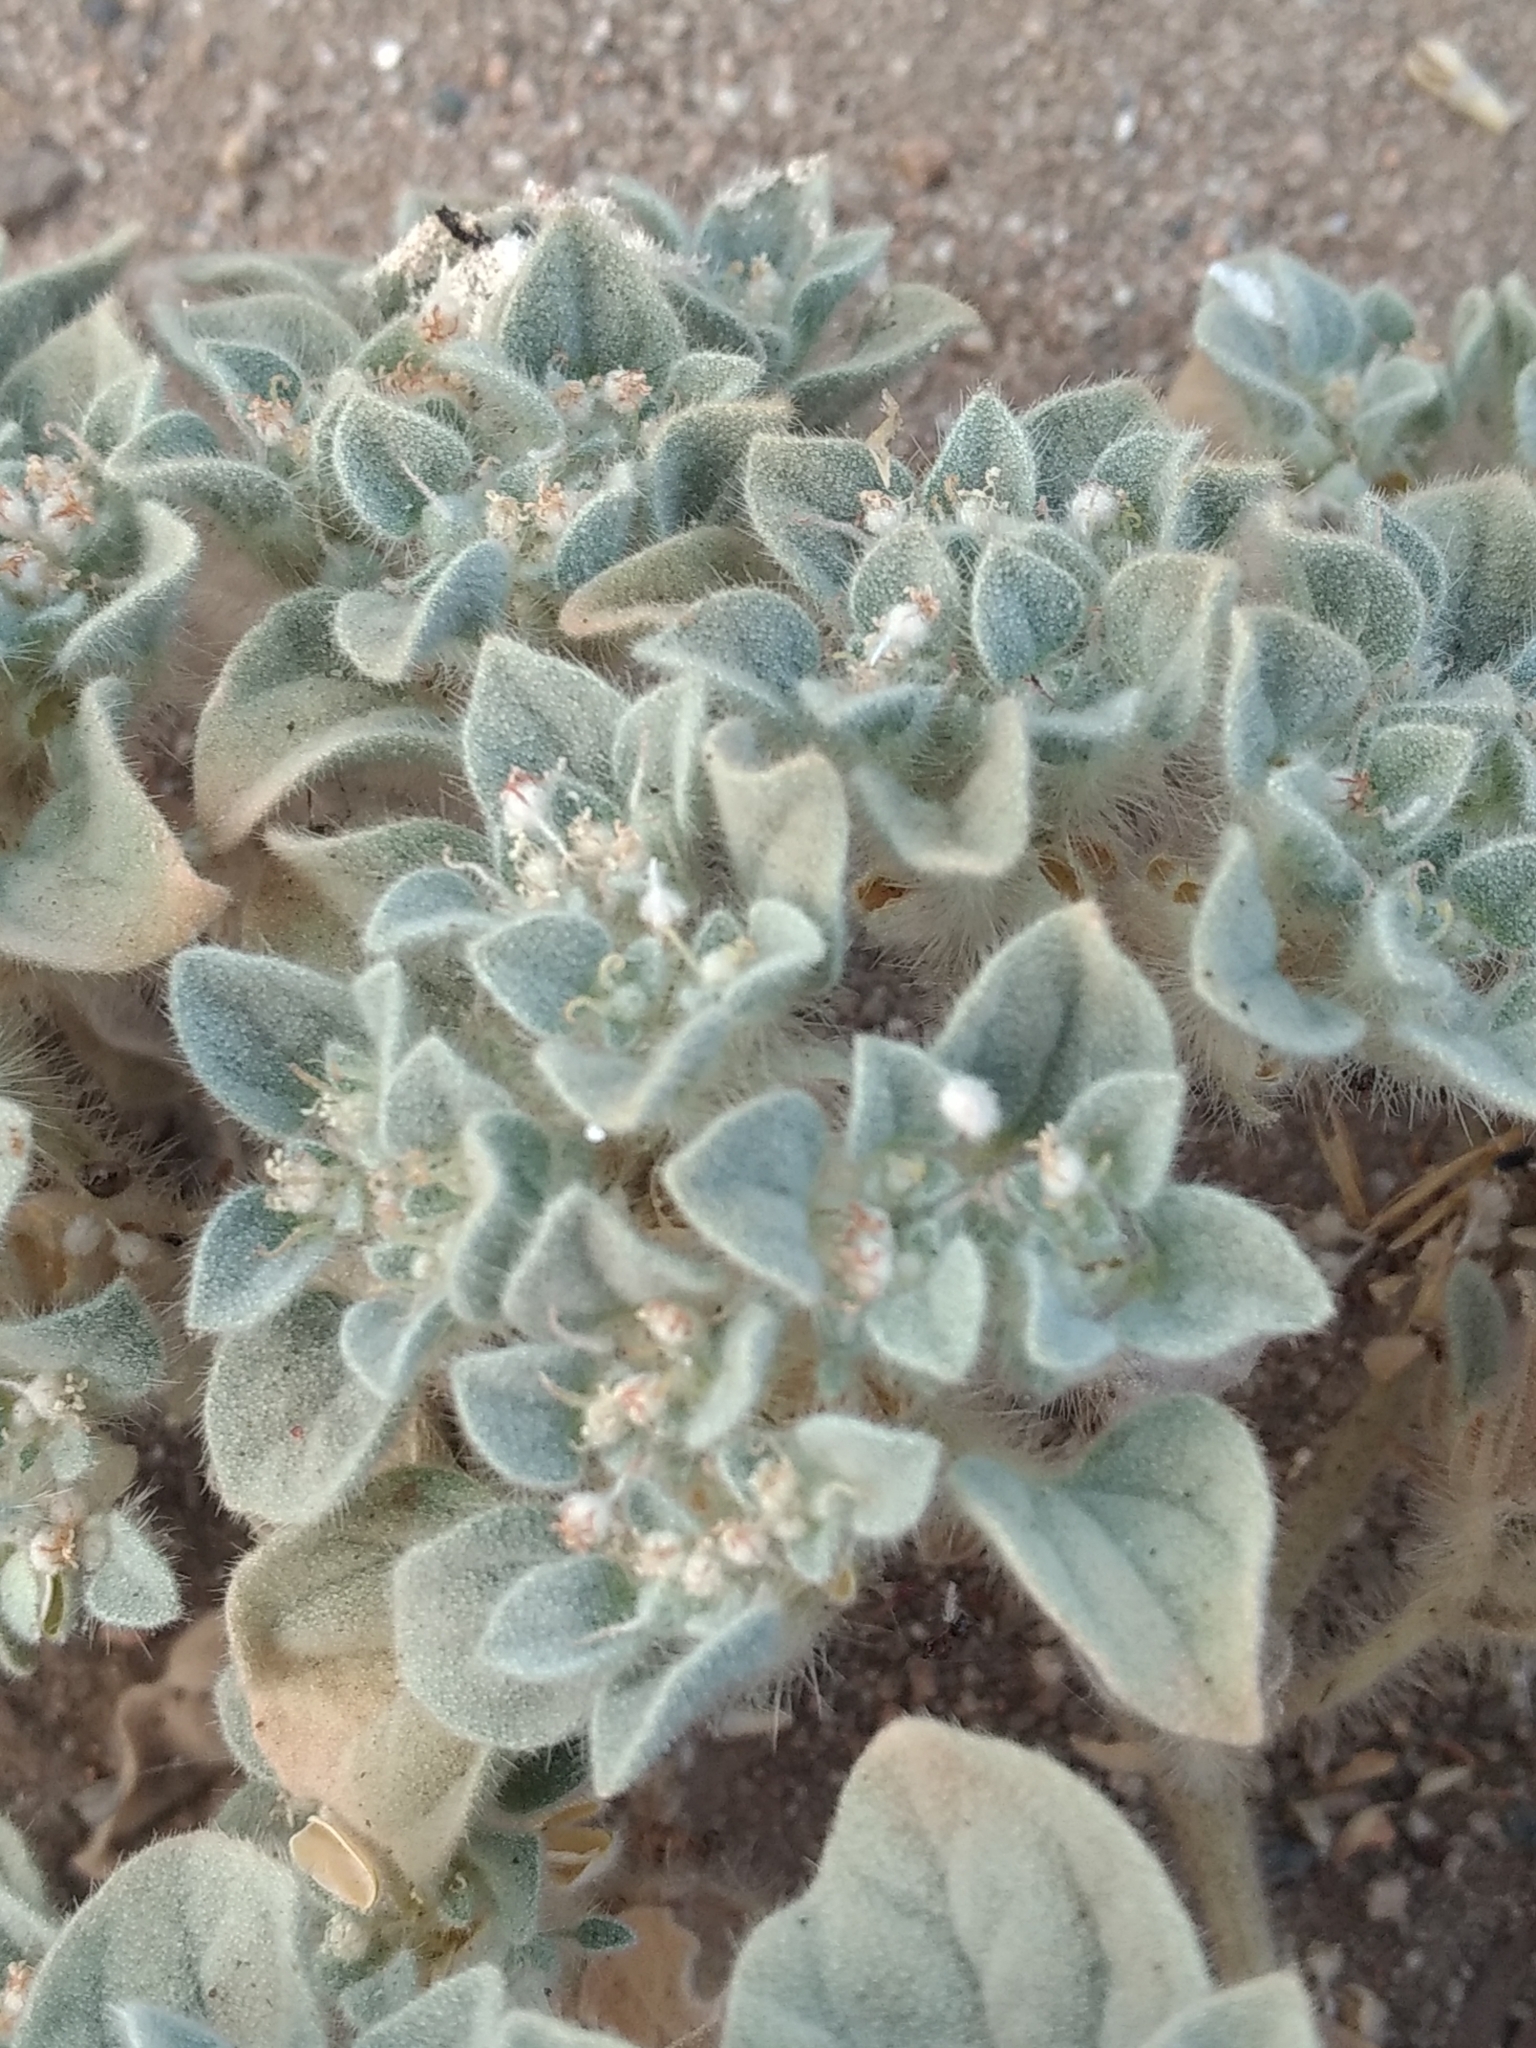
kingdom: Plantae
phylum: Tracheophyta
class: Magnoliopsida
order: Malpighiales
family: Euphorbiaceae
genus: Croton
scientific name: Croton setiger
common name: Dove weed
